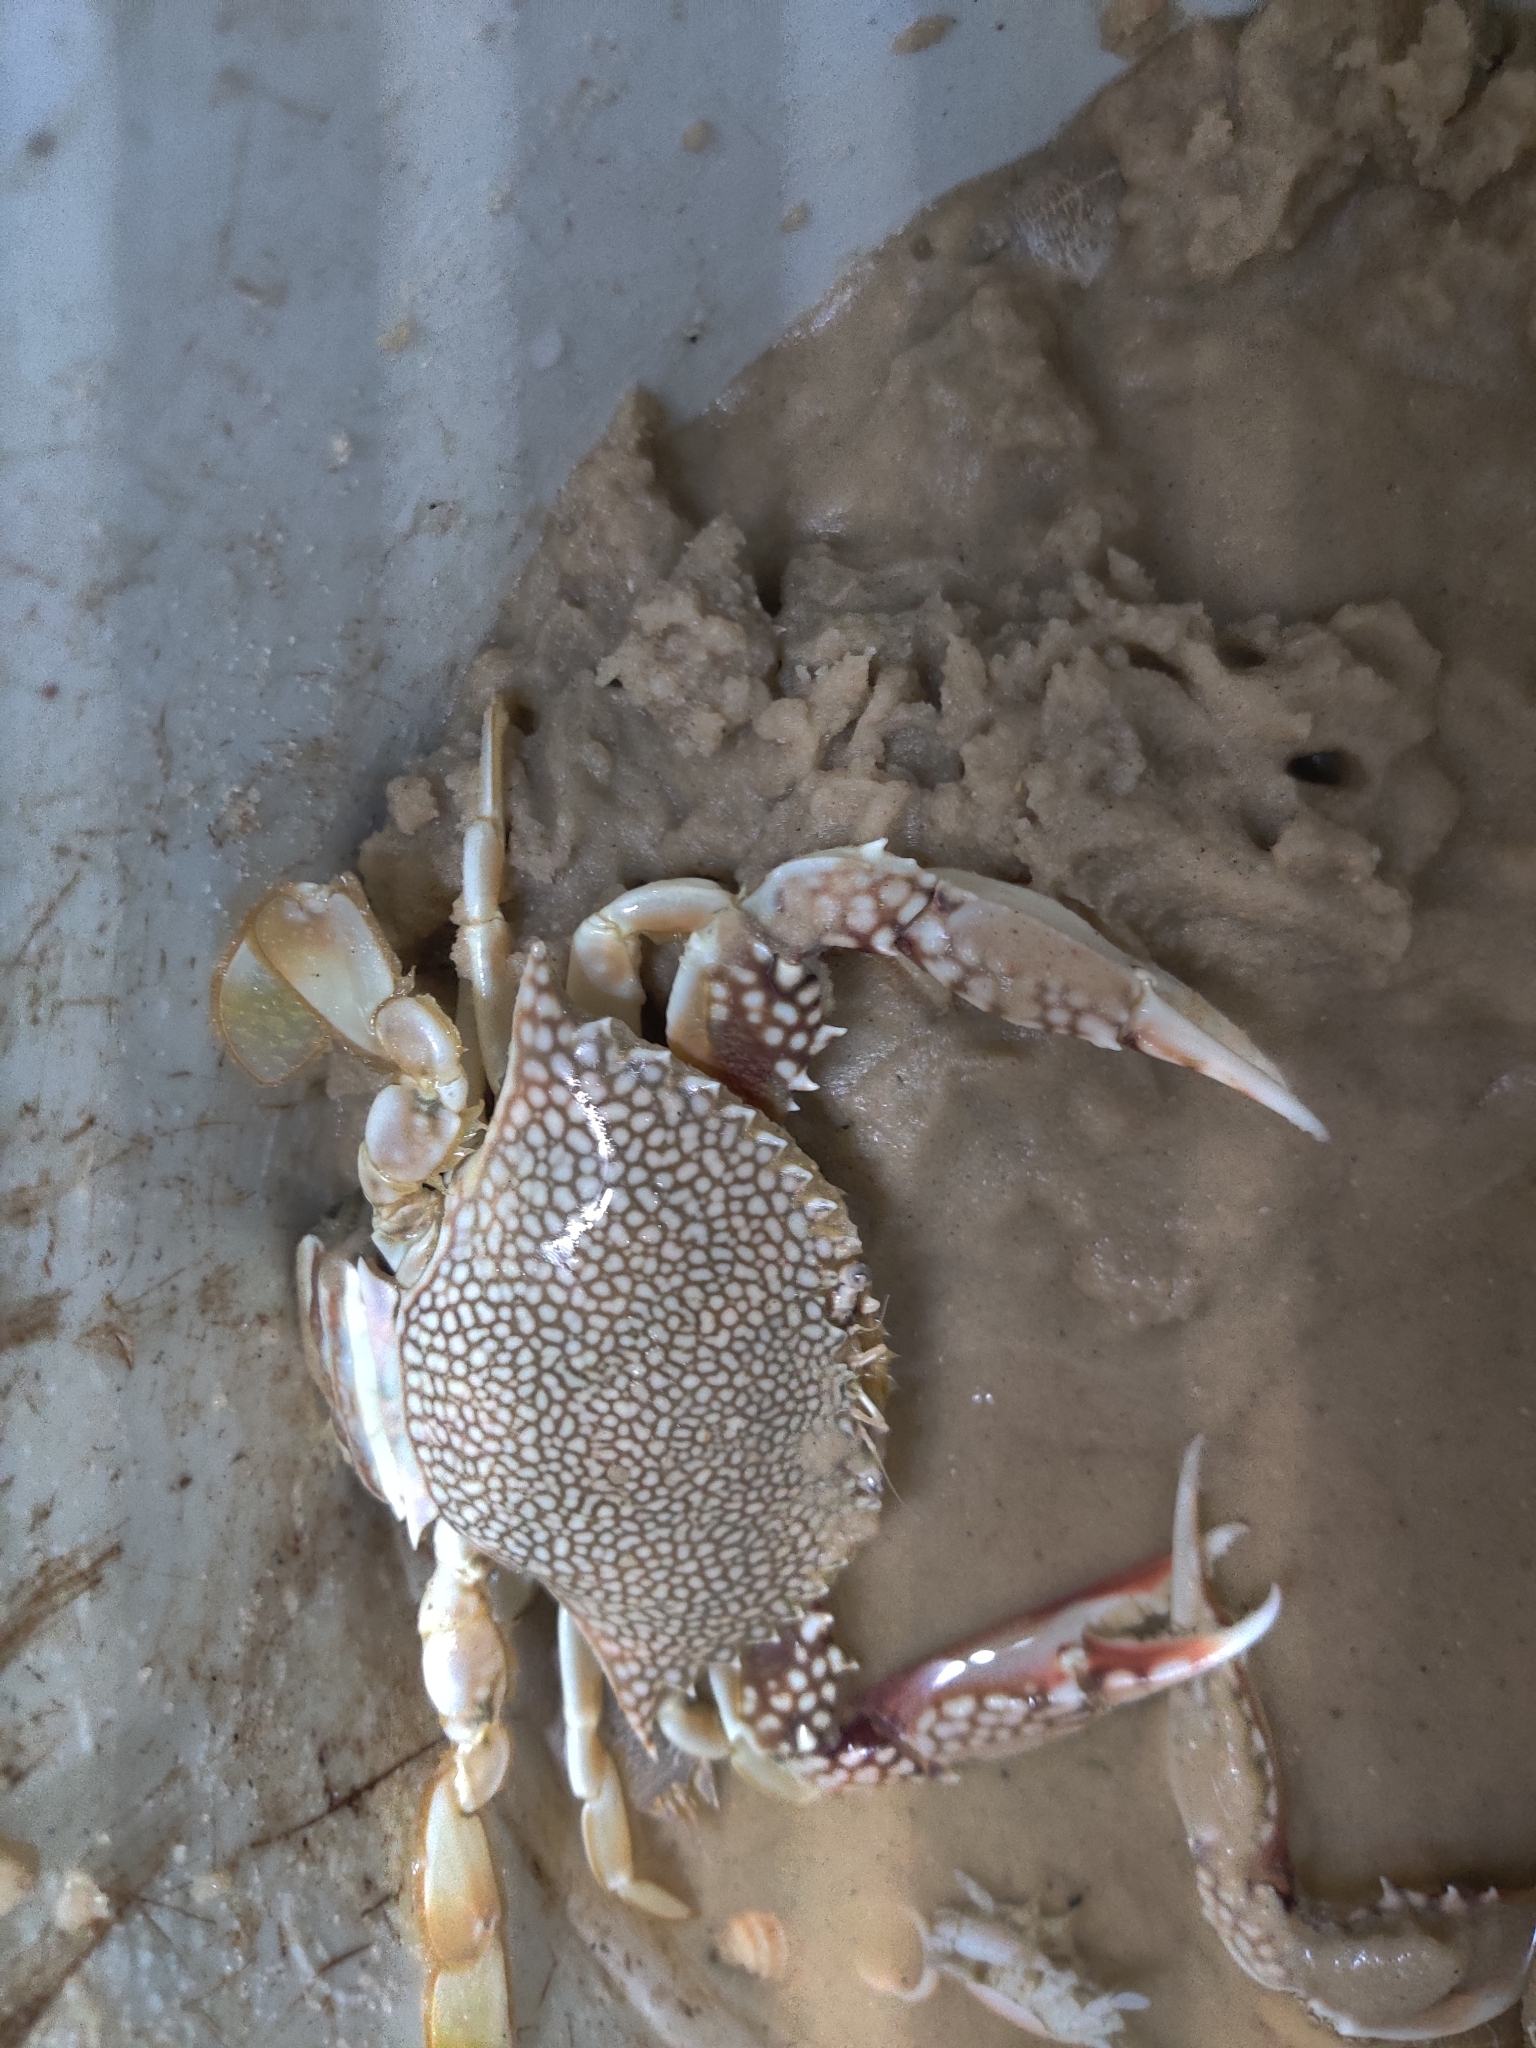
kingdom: Animalia
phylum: Arthropoda
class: Malacostraca
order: Decapoda
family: Portunidae
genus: Arenaeus
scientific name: Arenaeus cribrarius
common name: Speckled crab
